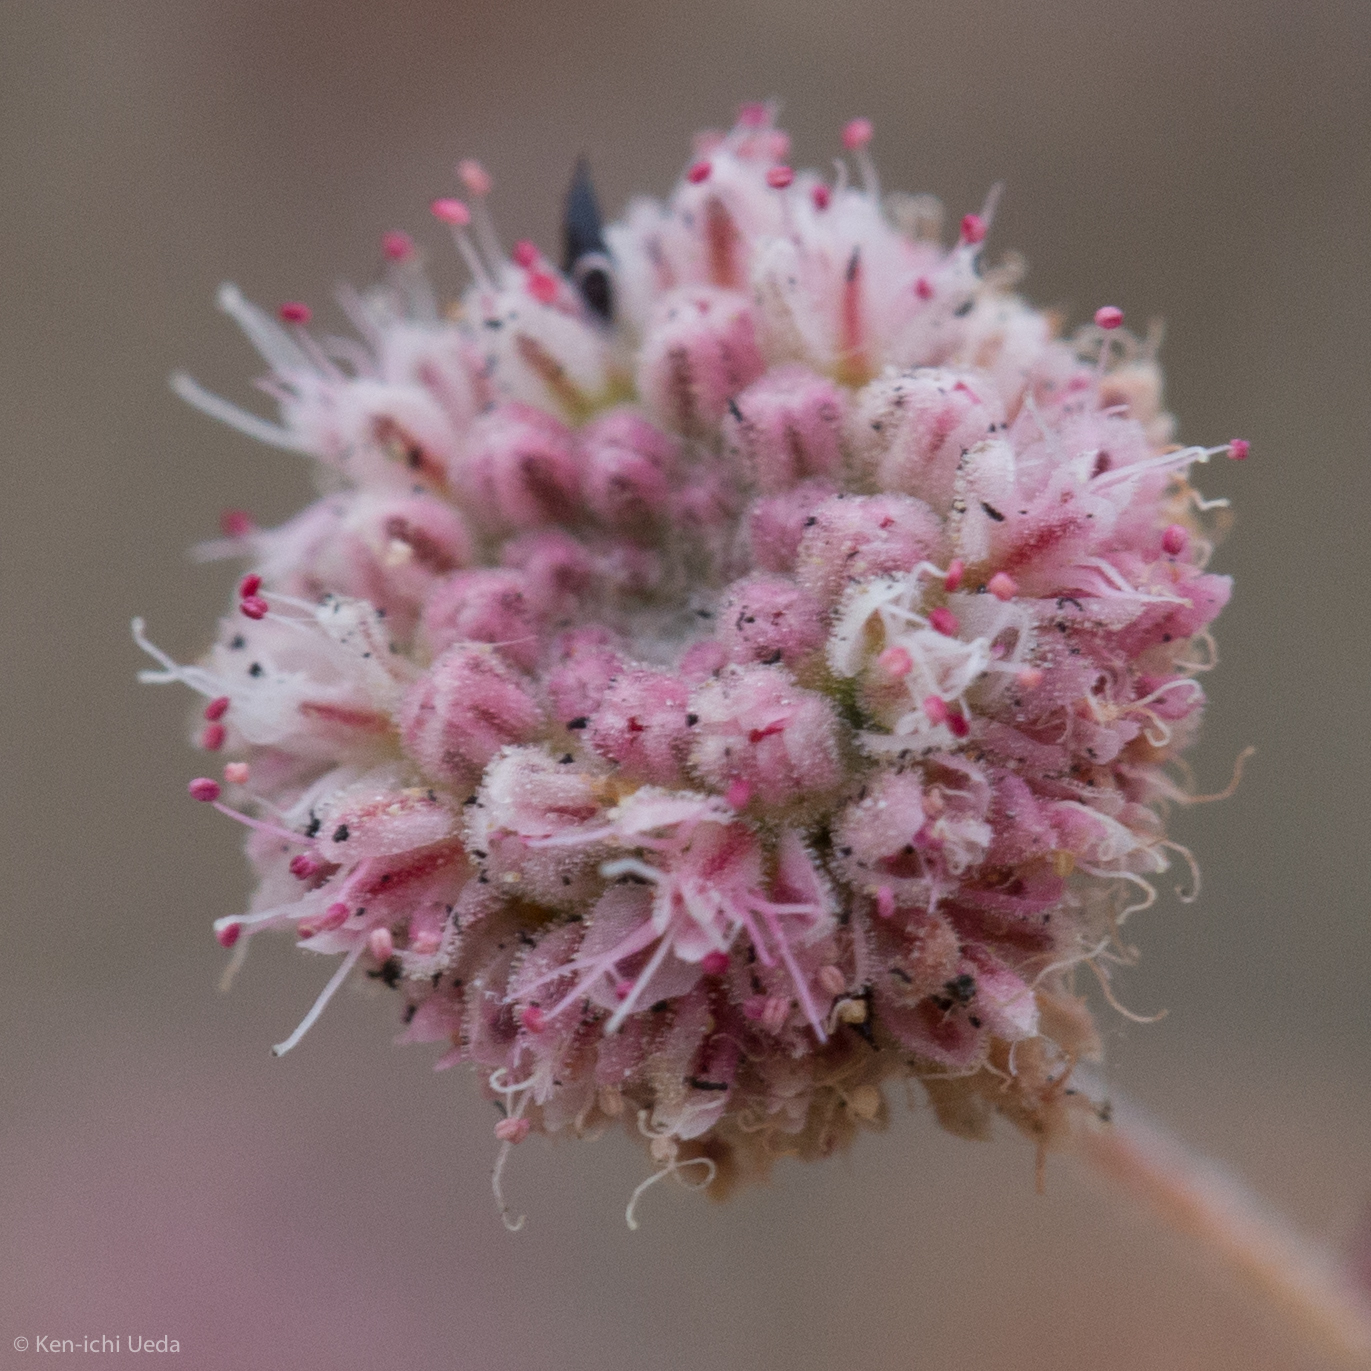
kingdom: Plantae
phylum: Tracheophyta
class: Magnoliopsida
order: Caryophyllales
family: Polygonaceae
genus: Eriogonum
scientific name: Eriogonum angulosum
